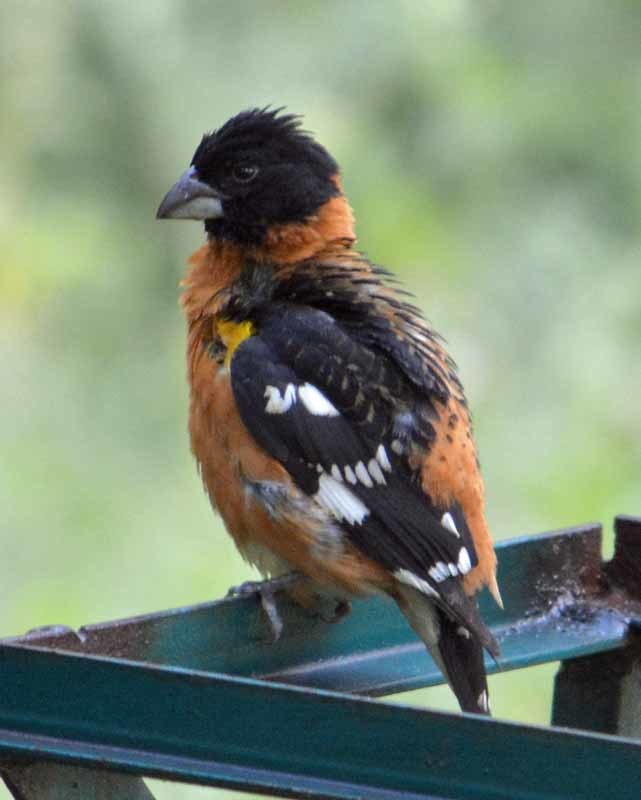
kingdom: Animalia
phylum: Chordata
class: Aves
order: Passeriformes
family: Cardinalidae
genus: Pheucticus
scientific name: Pheucticus melanocephalus
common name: Black-headed grosbeak
